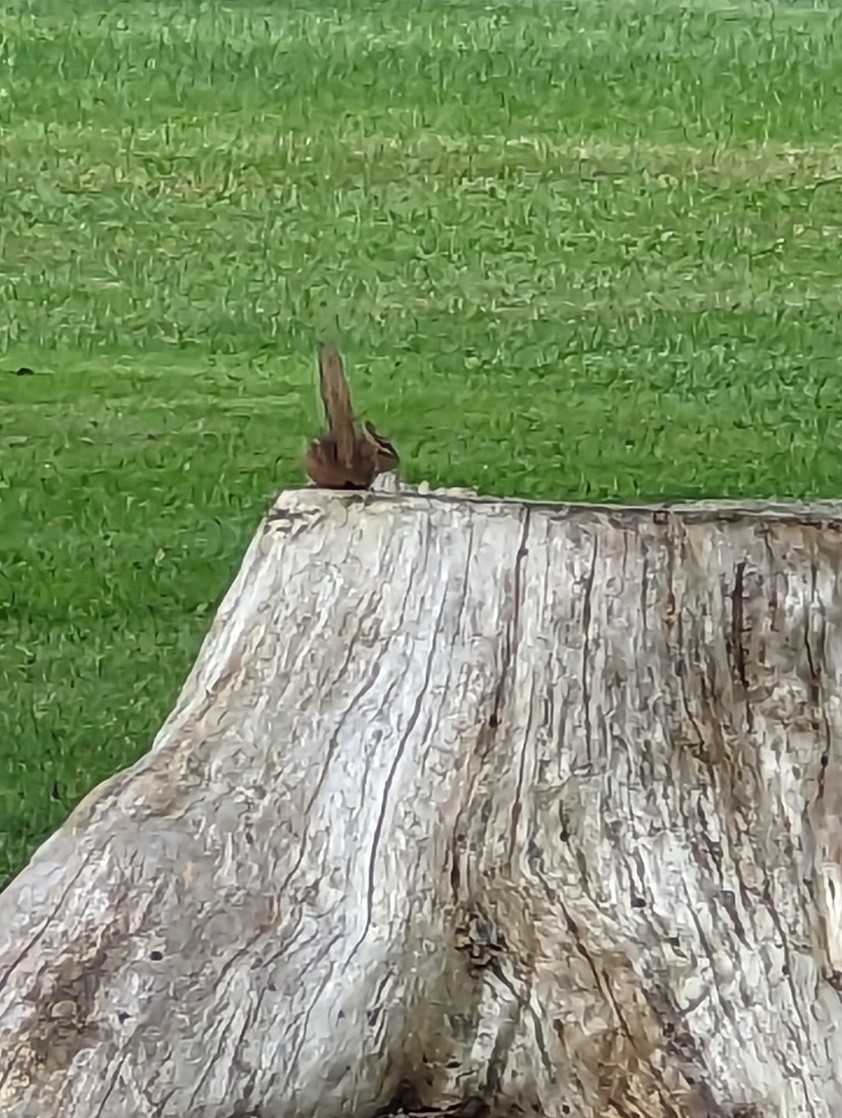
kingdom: Animalia
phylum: Chordata
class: Mammalia
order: Rodentia
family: Sciuridae
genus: Tamias
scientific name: Tamias striatus
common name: Eastern chipmunk
